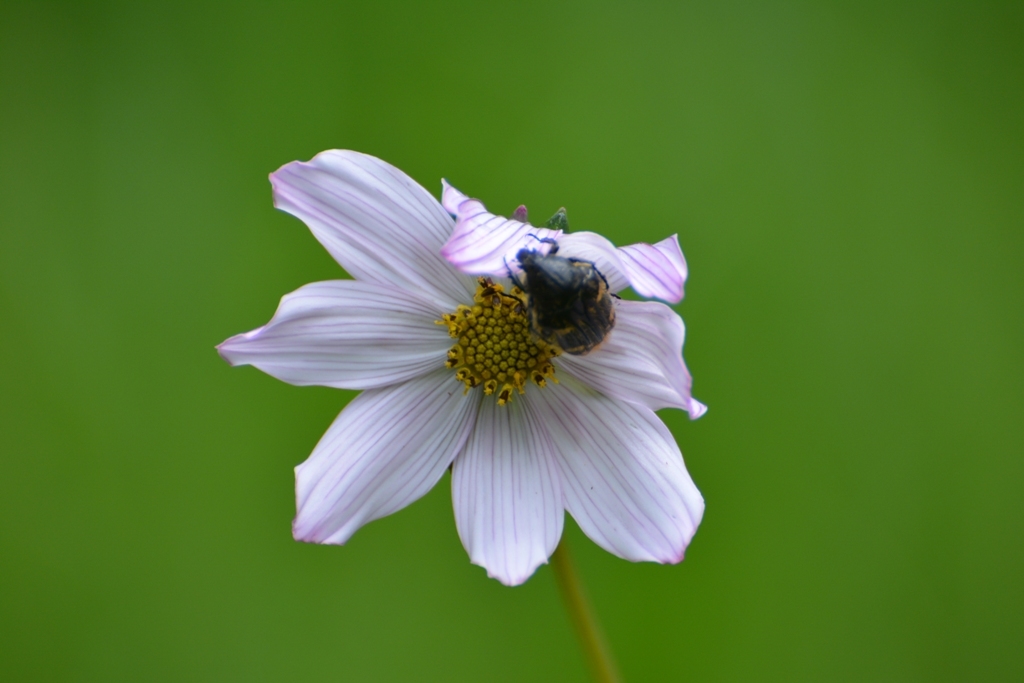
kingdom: Plantae
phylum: Tracheophyta
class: Magnoliopsida
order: Asterales
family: Asteraceae
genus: Cosmos
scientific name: Cosmos diversifolius
